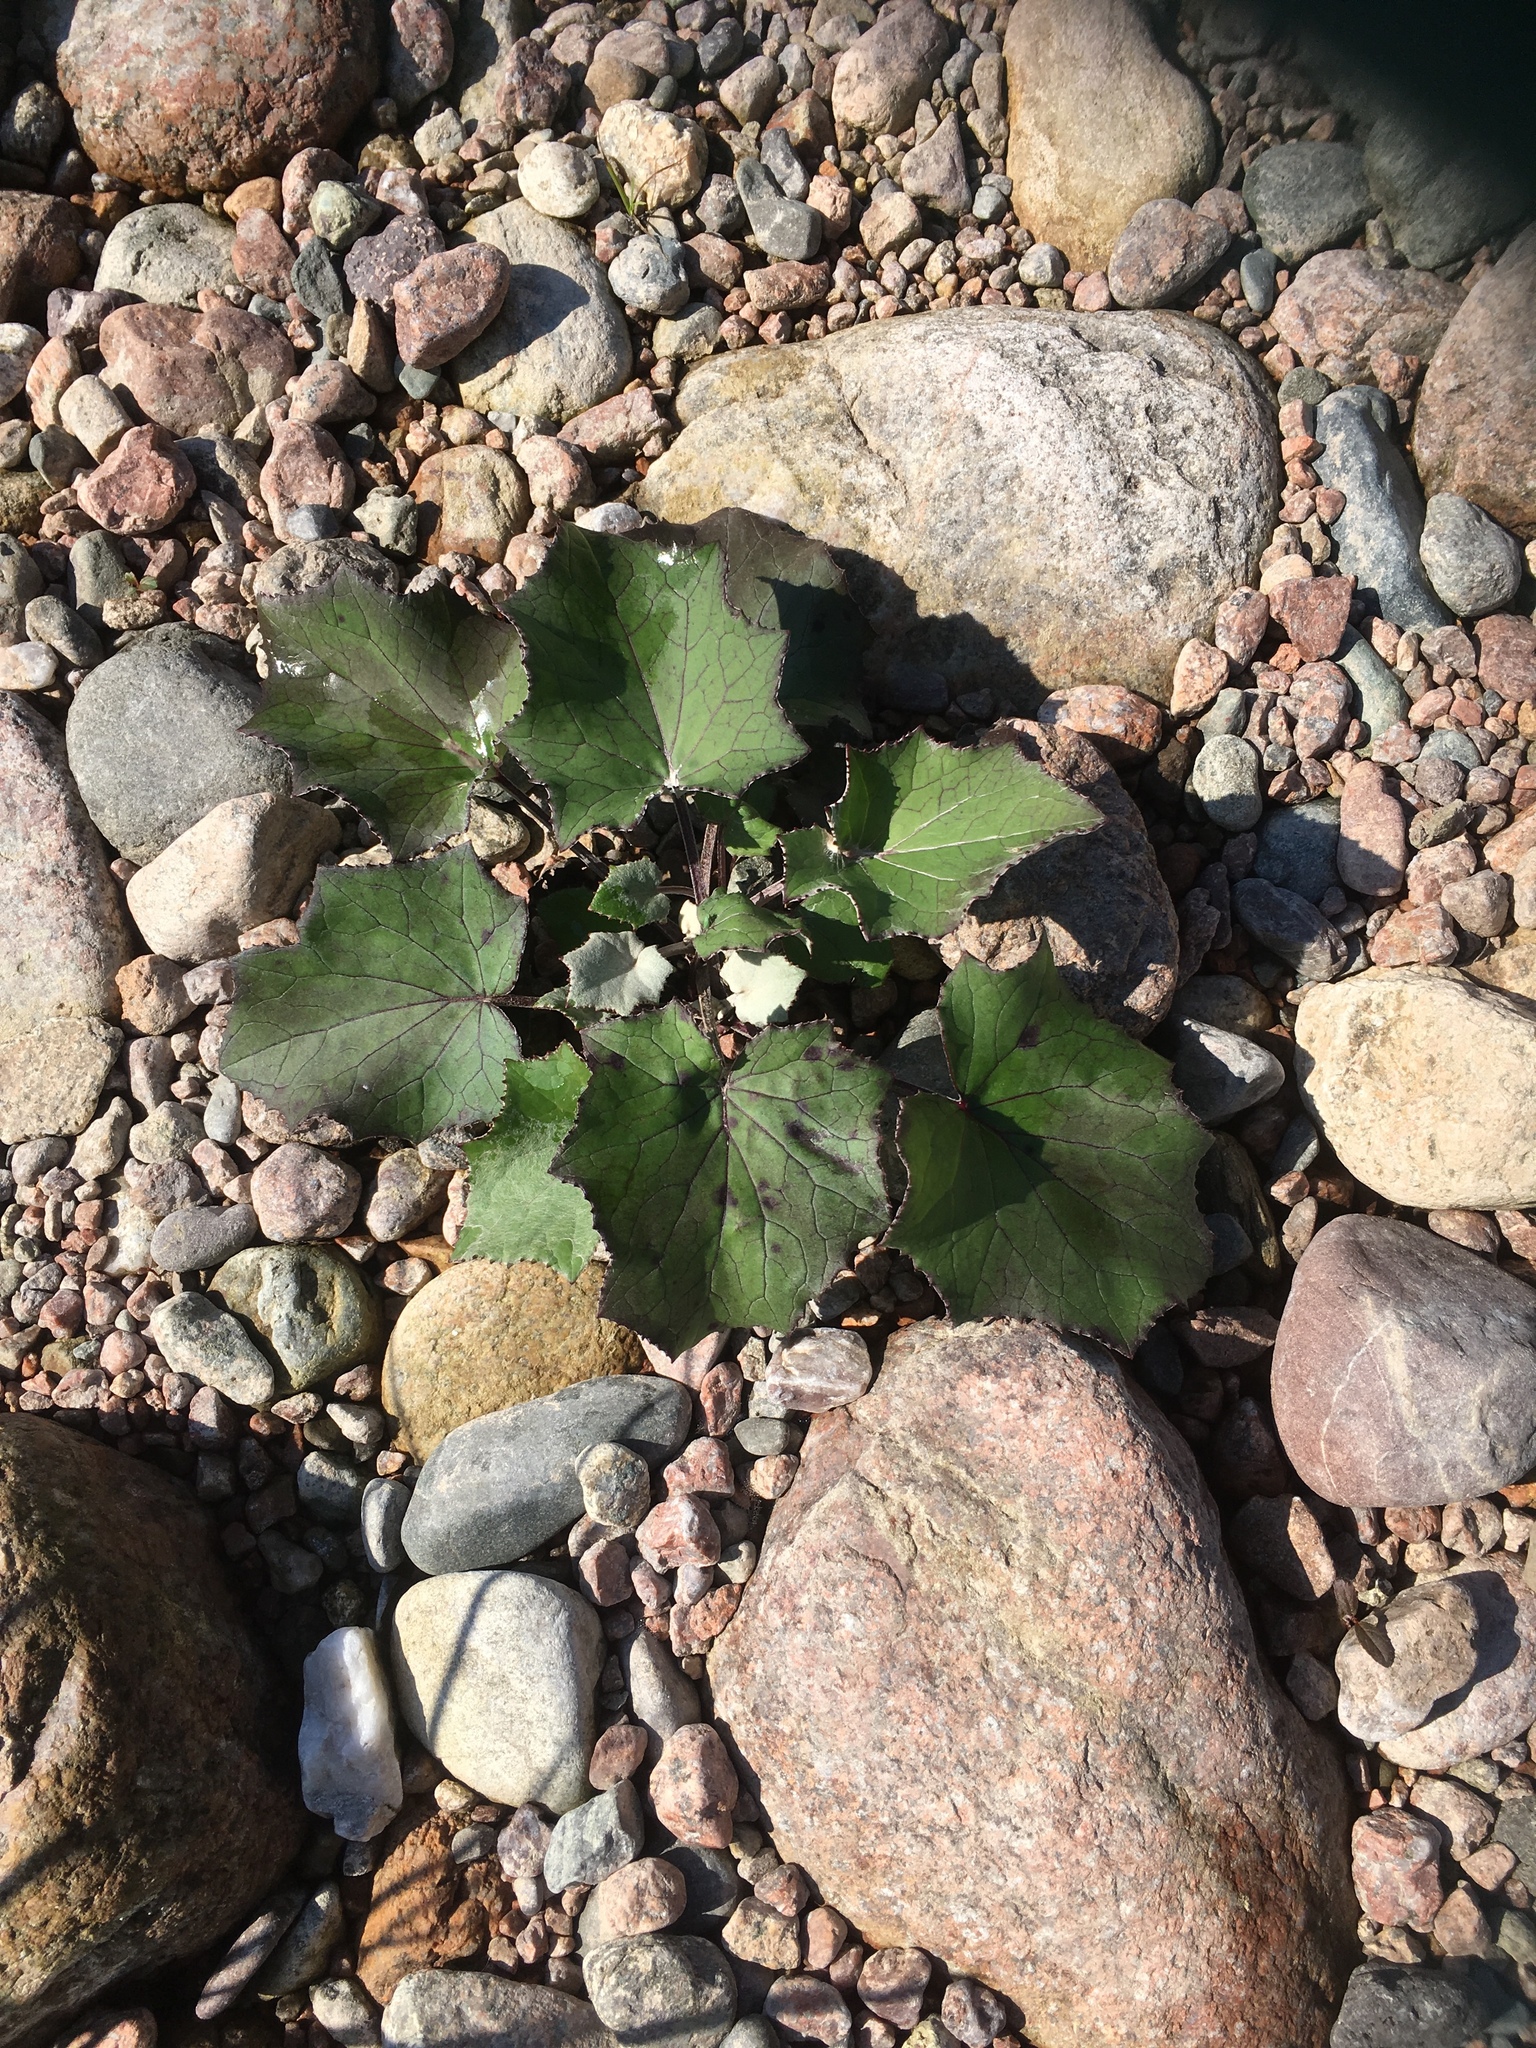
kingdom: Plantae
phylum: Tracheophyta
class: Magnoliopsida
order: Asterales
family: Asteraceae
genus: Tussilago
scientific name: Tussilago farfara
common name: Coltsfoot
